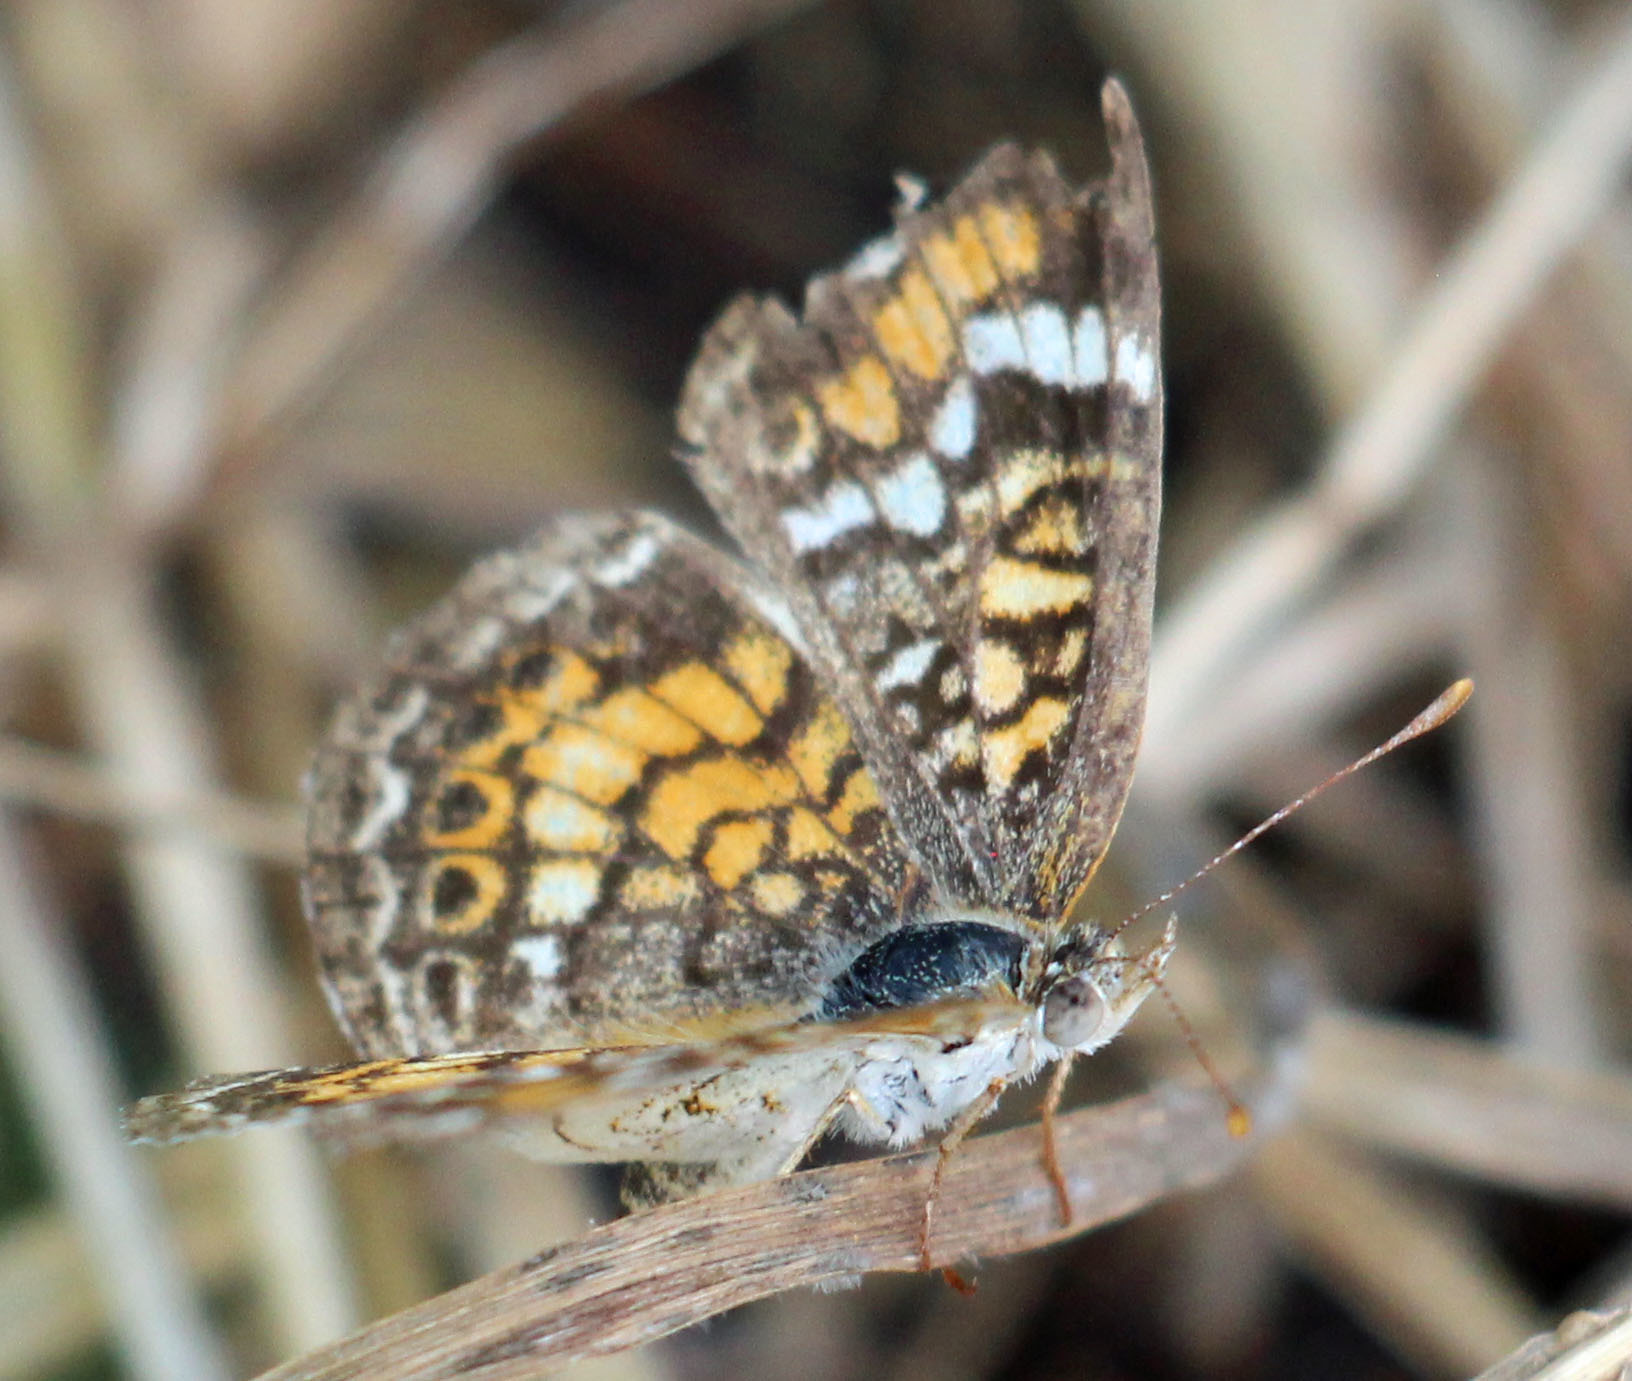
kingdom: Animalia
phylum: Arthropoda
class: Insecta
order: Lepidoptera
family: Nymphalidae
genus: Phyciodes
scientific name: Phyciodes phaon
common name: Phaon crescent
